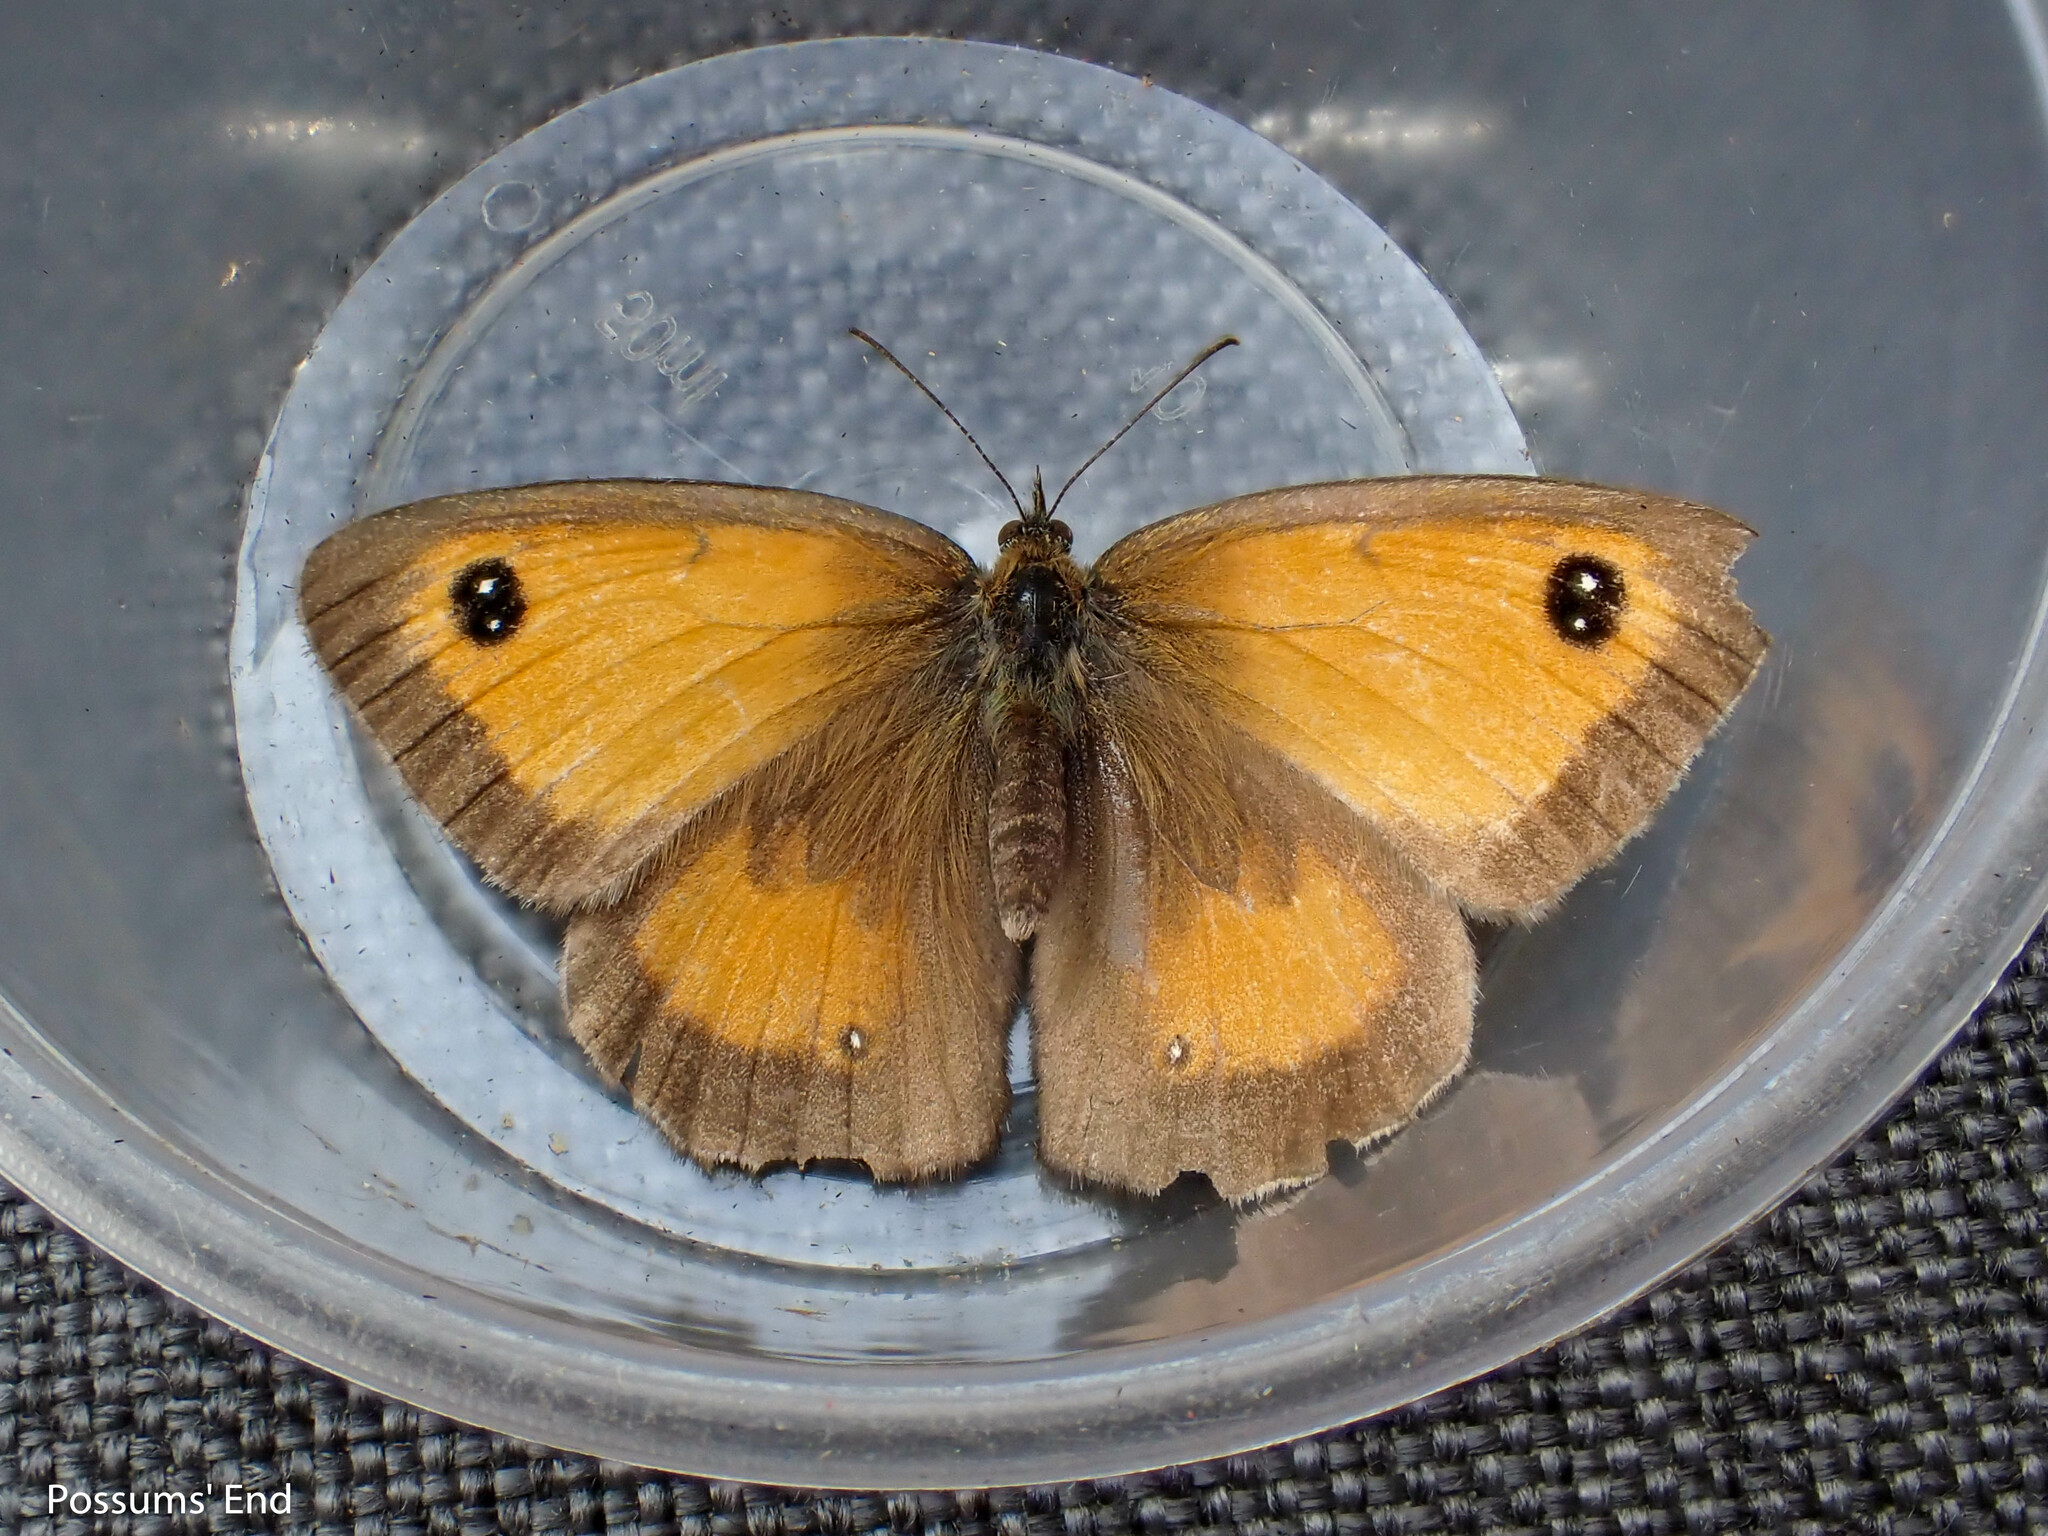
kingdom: Animalia
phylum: Arthropoda
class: Insecta
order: Lepidoptera
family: Nymphalidae
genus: Pyronia
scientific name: Pyronia tithonus
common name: Gatekeeper
